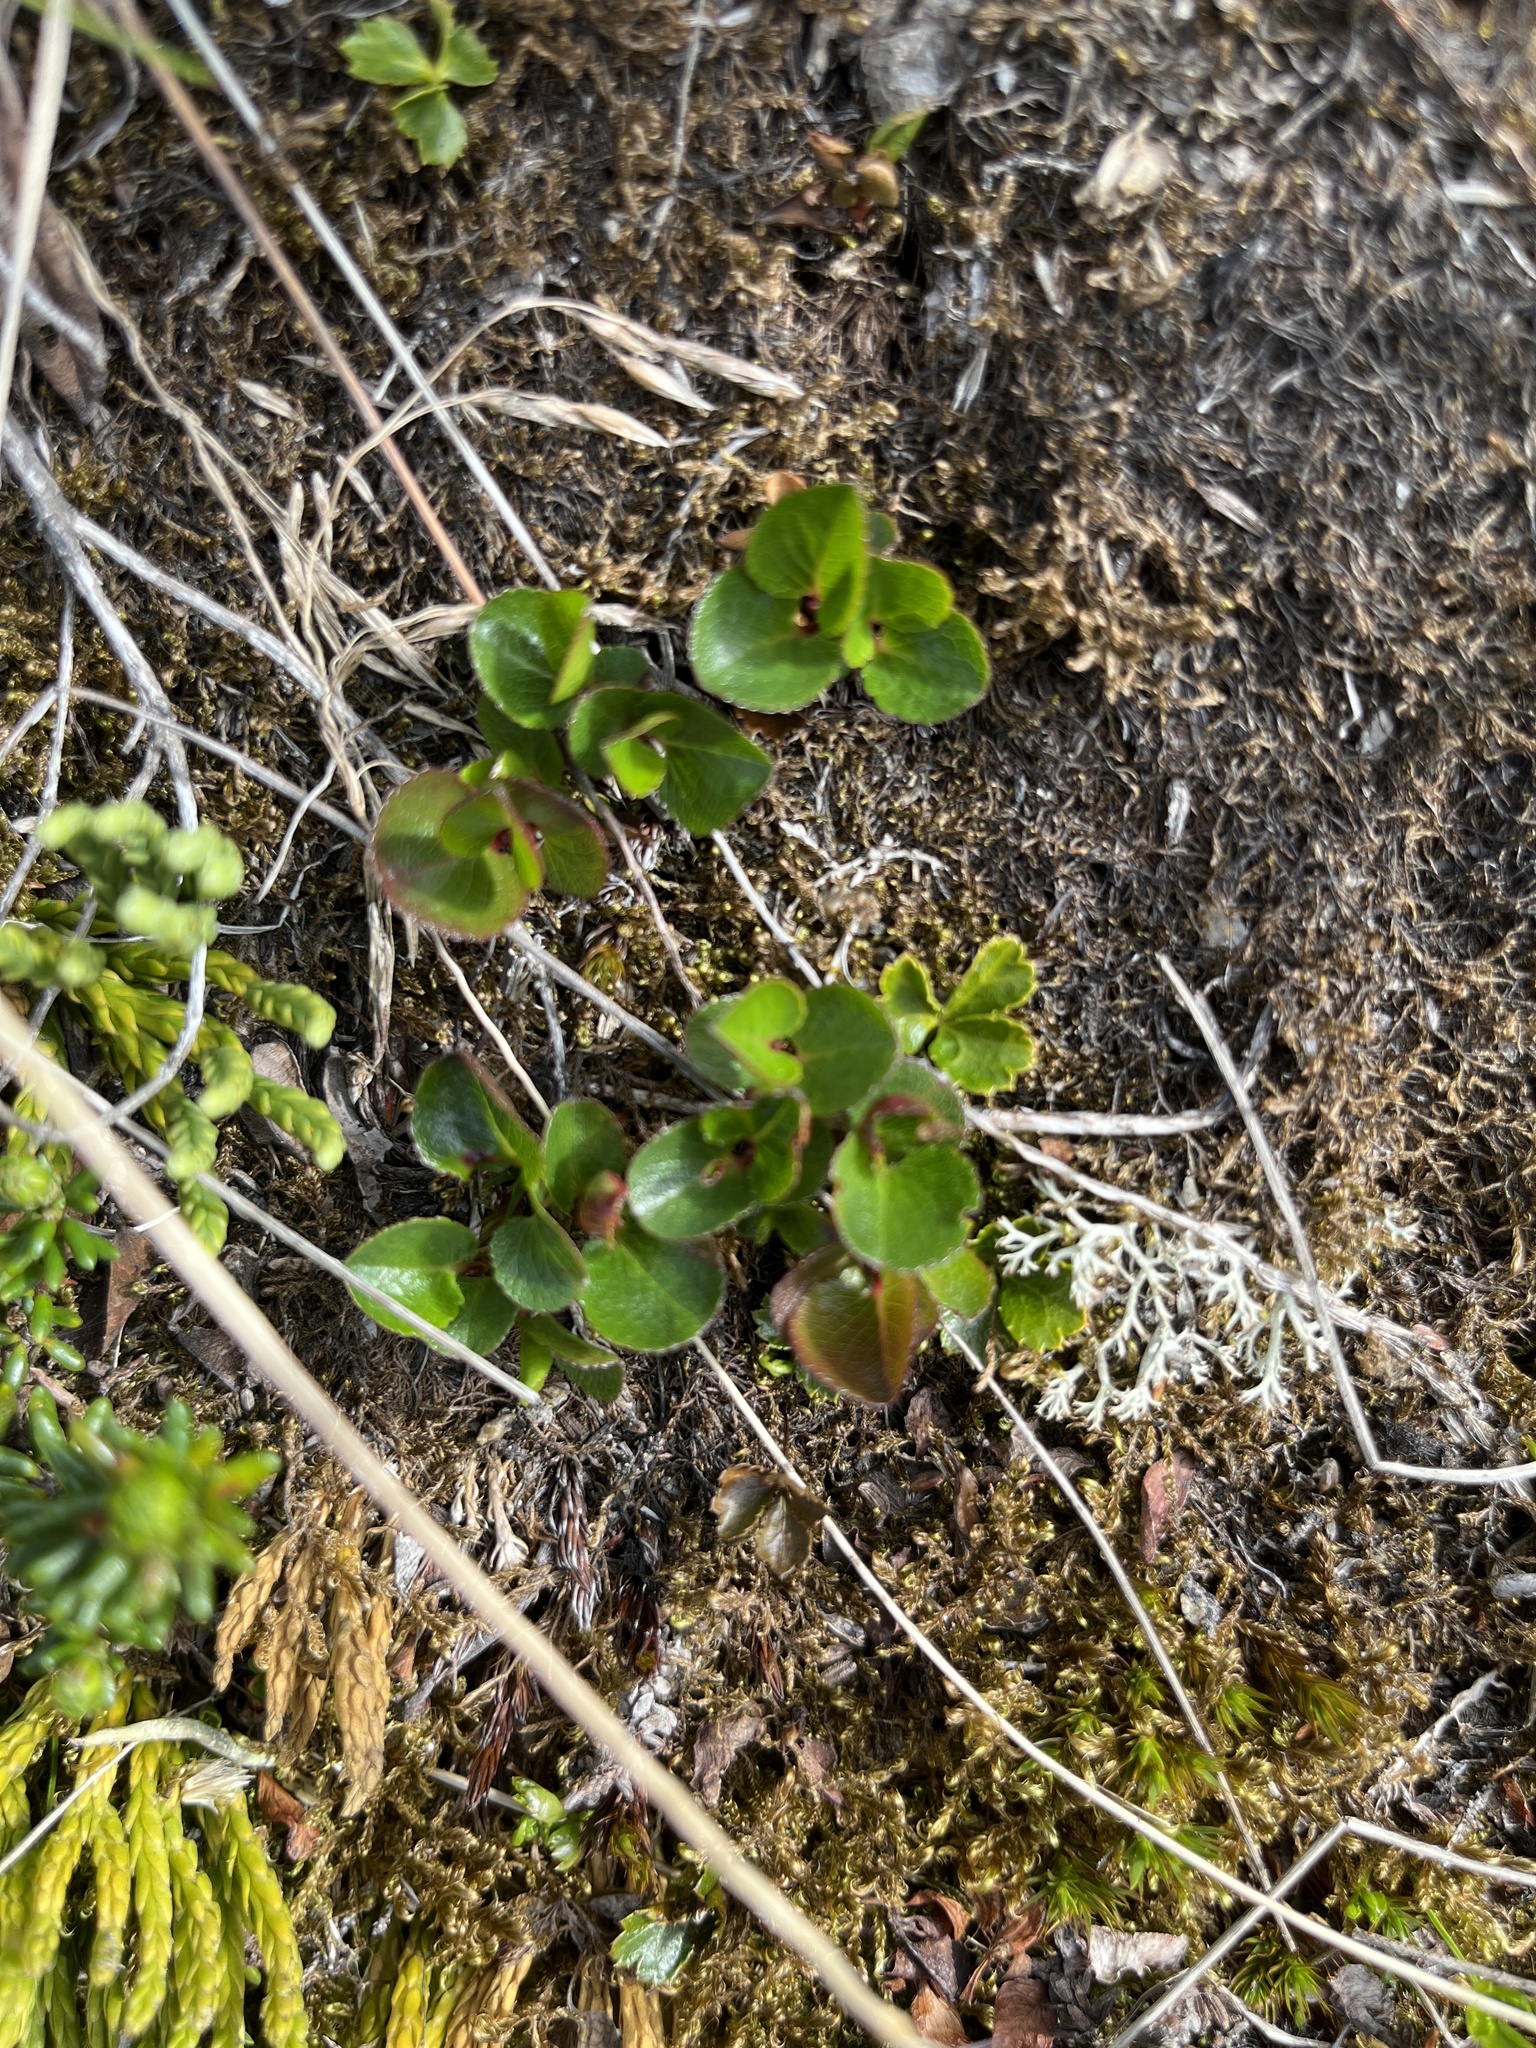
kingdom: Plantae
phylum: Tracheophyta
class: Magnoliopsida
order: Malpighiales
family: Salicaceae
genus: Salix
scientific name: Salix herbacea
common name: Dwarf willow
